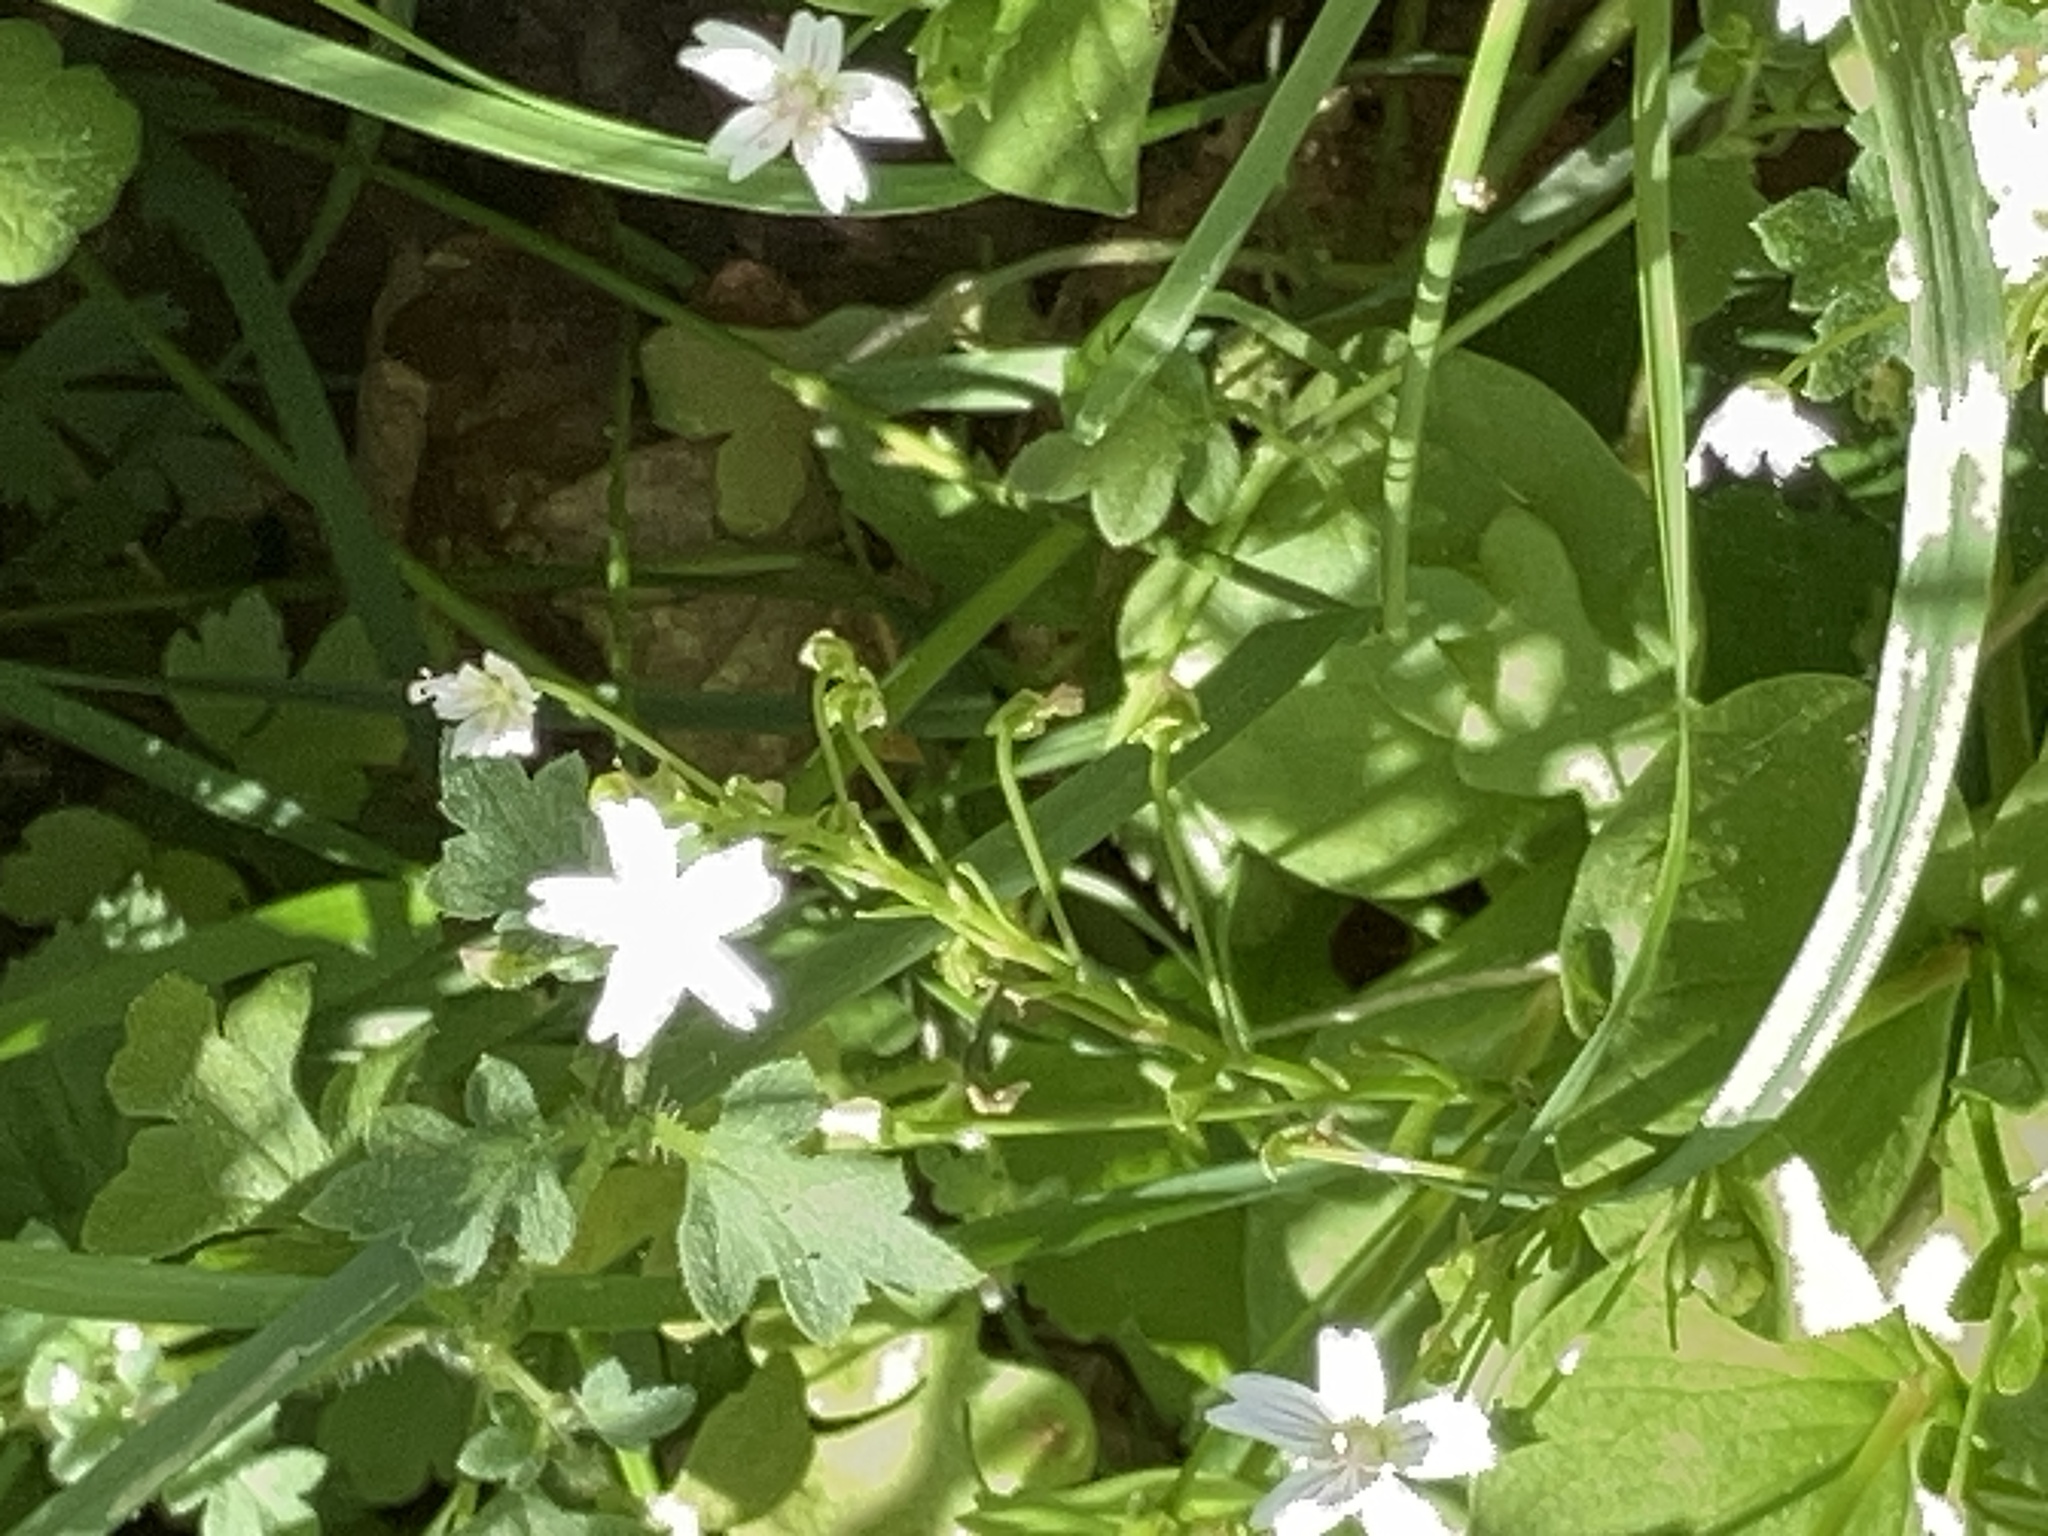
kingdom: Plantae
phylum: Tracheophyta
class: Magnoliopsida
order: Caryophyllales
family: Montiaceae
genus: Claytonia
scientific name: Claytonia sibirica
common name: Pink purslane
